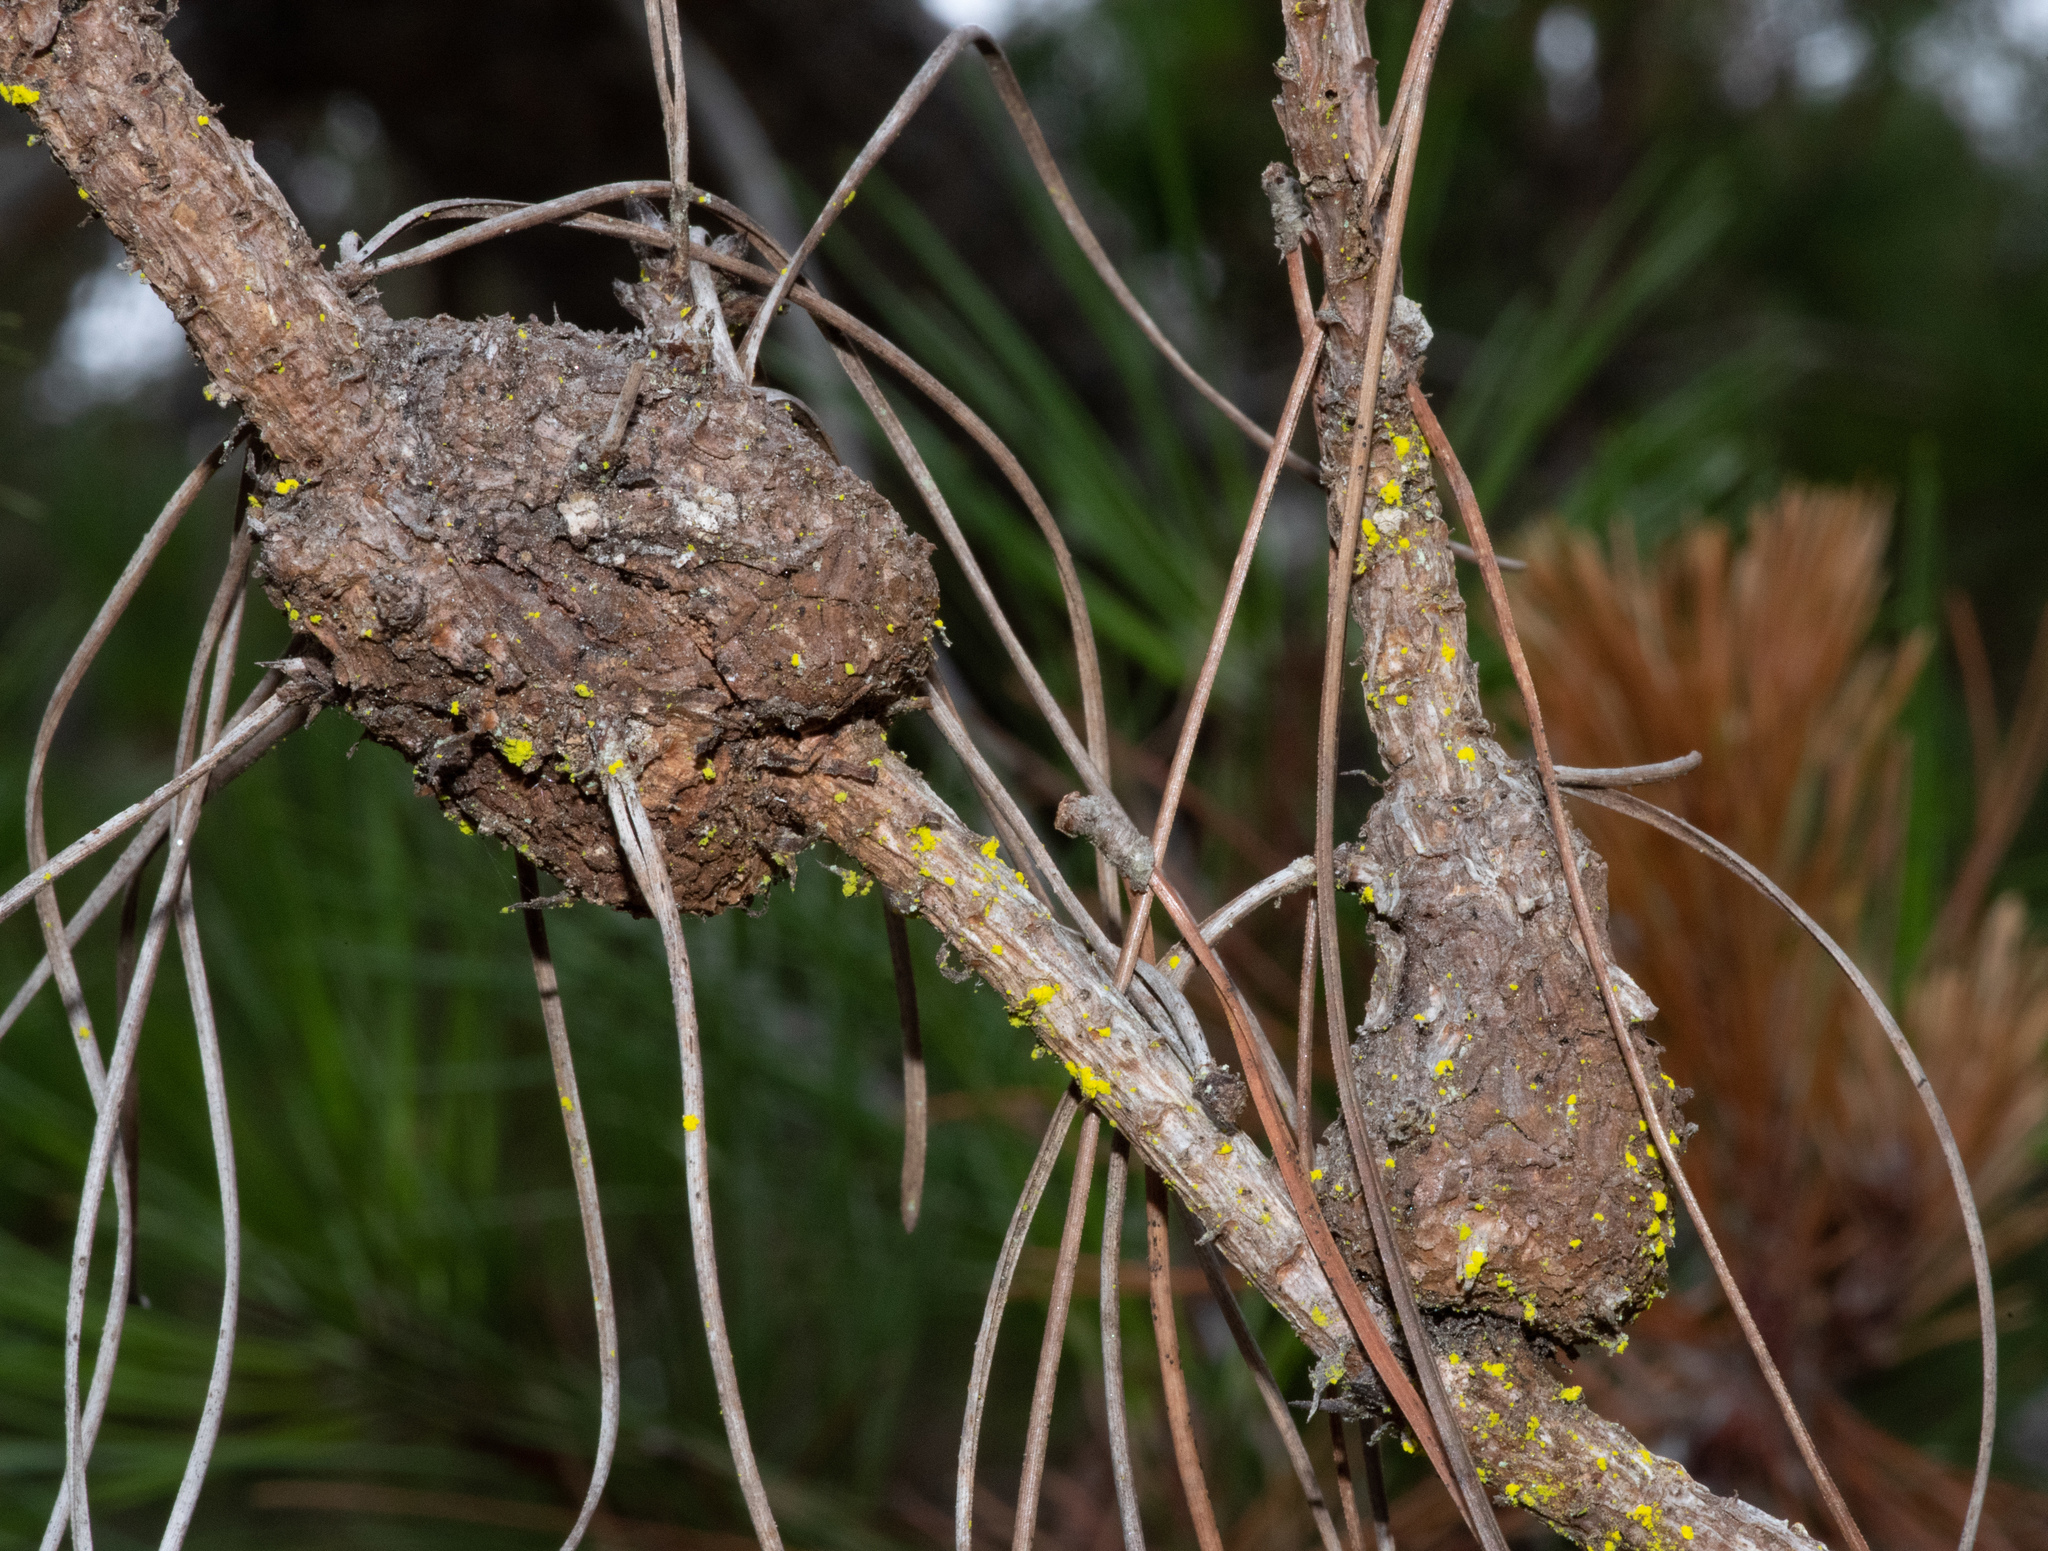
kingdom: Fungi
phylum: Basidiomycota
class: Pucciniomycetes
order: Pucciniales
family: Cronartiaceae
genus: Cronartium
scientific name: Cronartium harknessii
